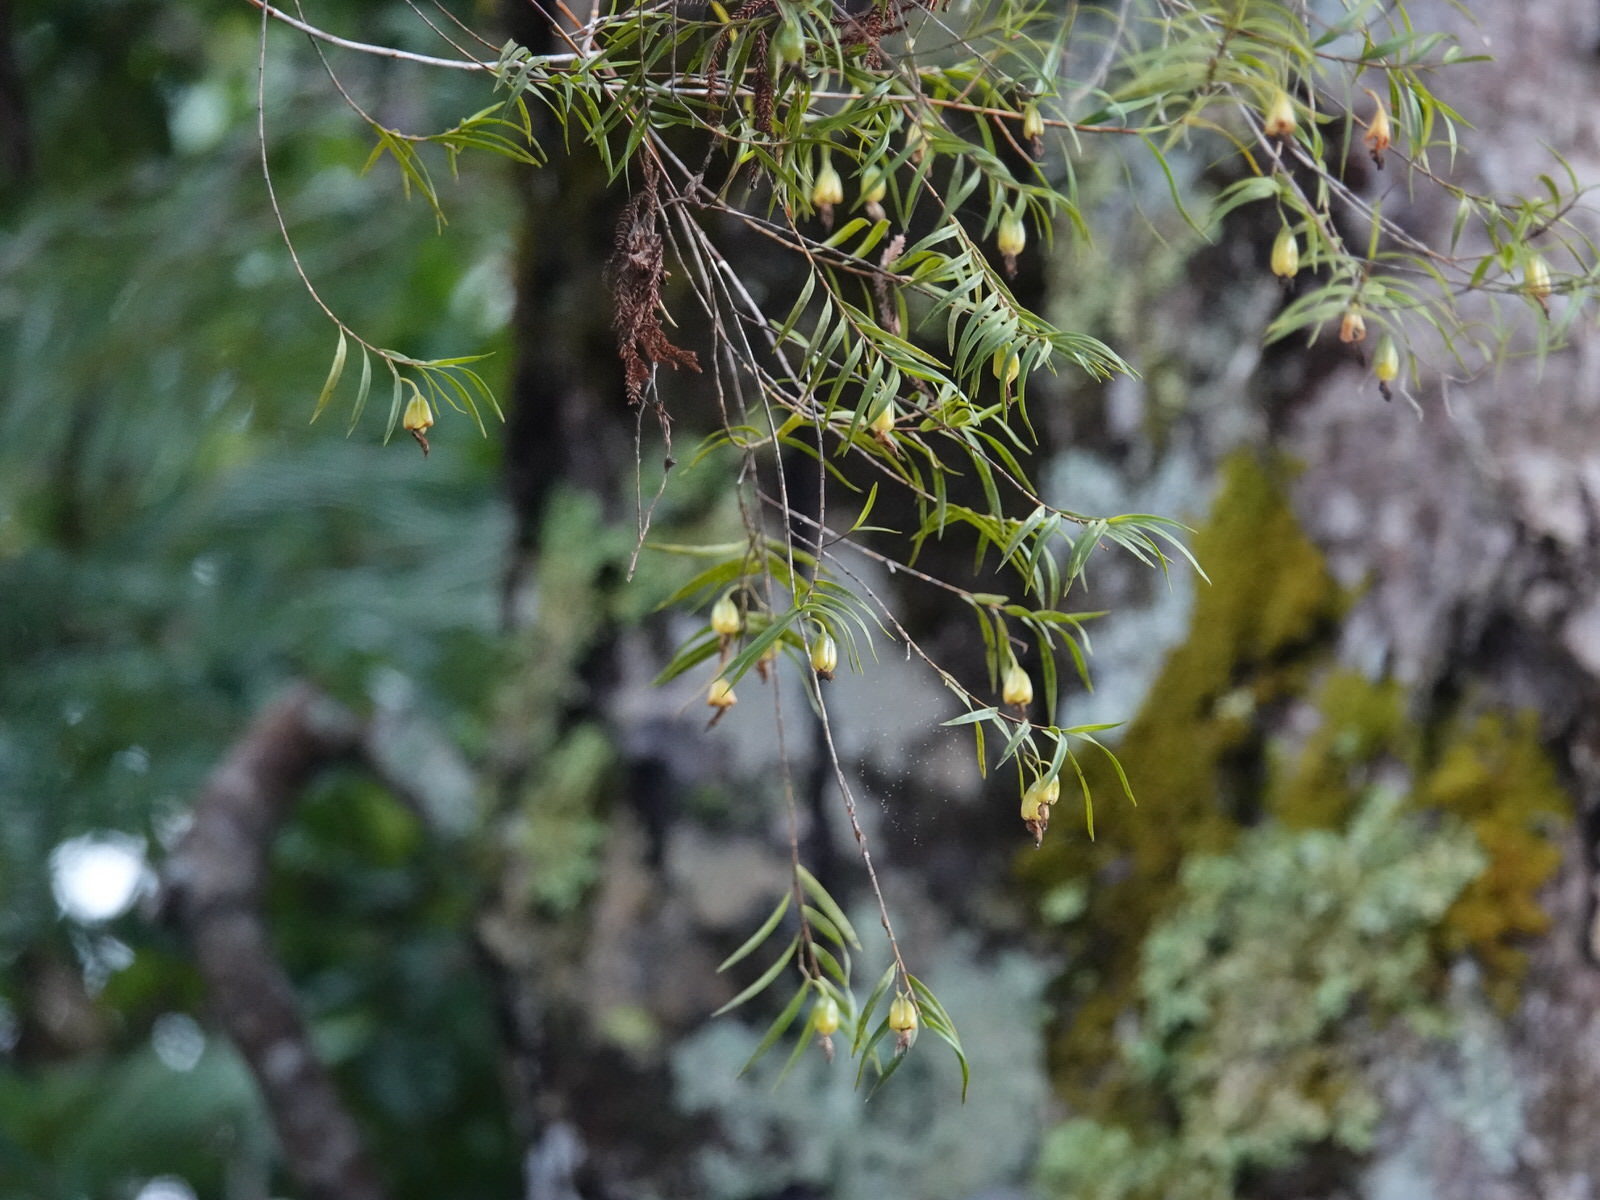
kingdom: Plantae
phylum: Tracheophyta
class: Liliopsida
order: Asparagales
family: Orchidaceae
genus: Dendrobium
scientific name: Dendrobium cunninghamii
